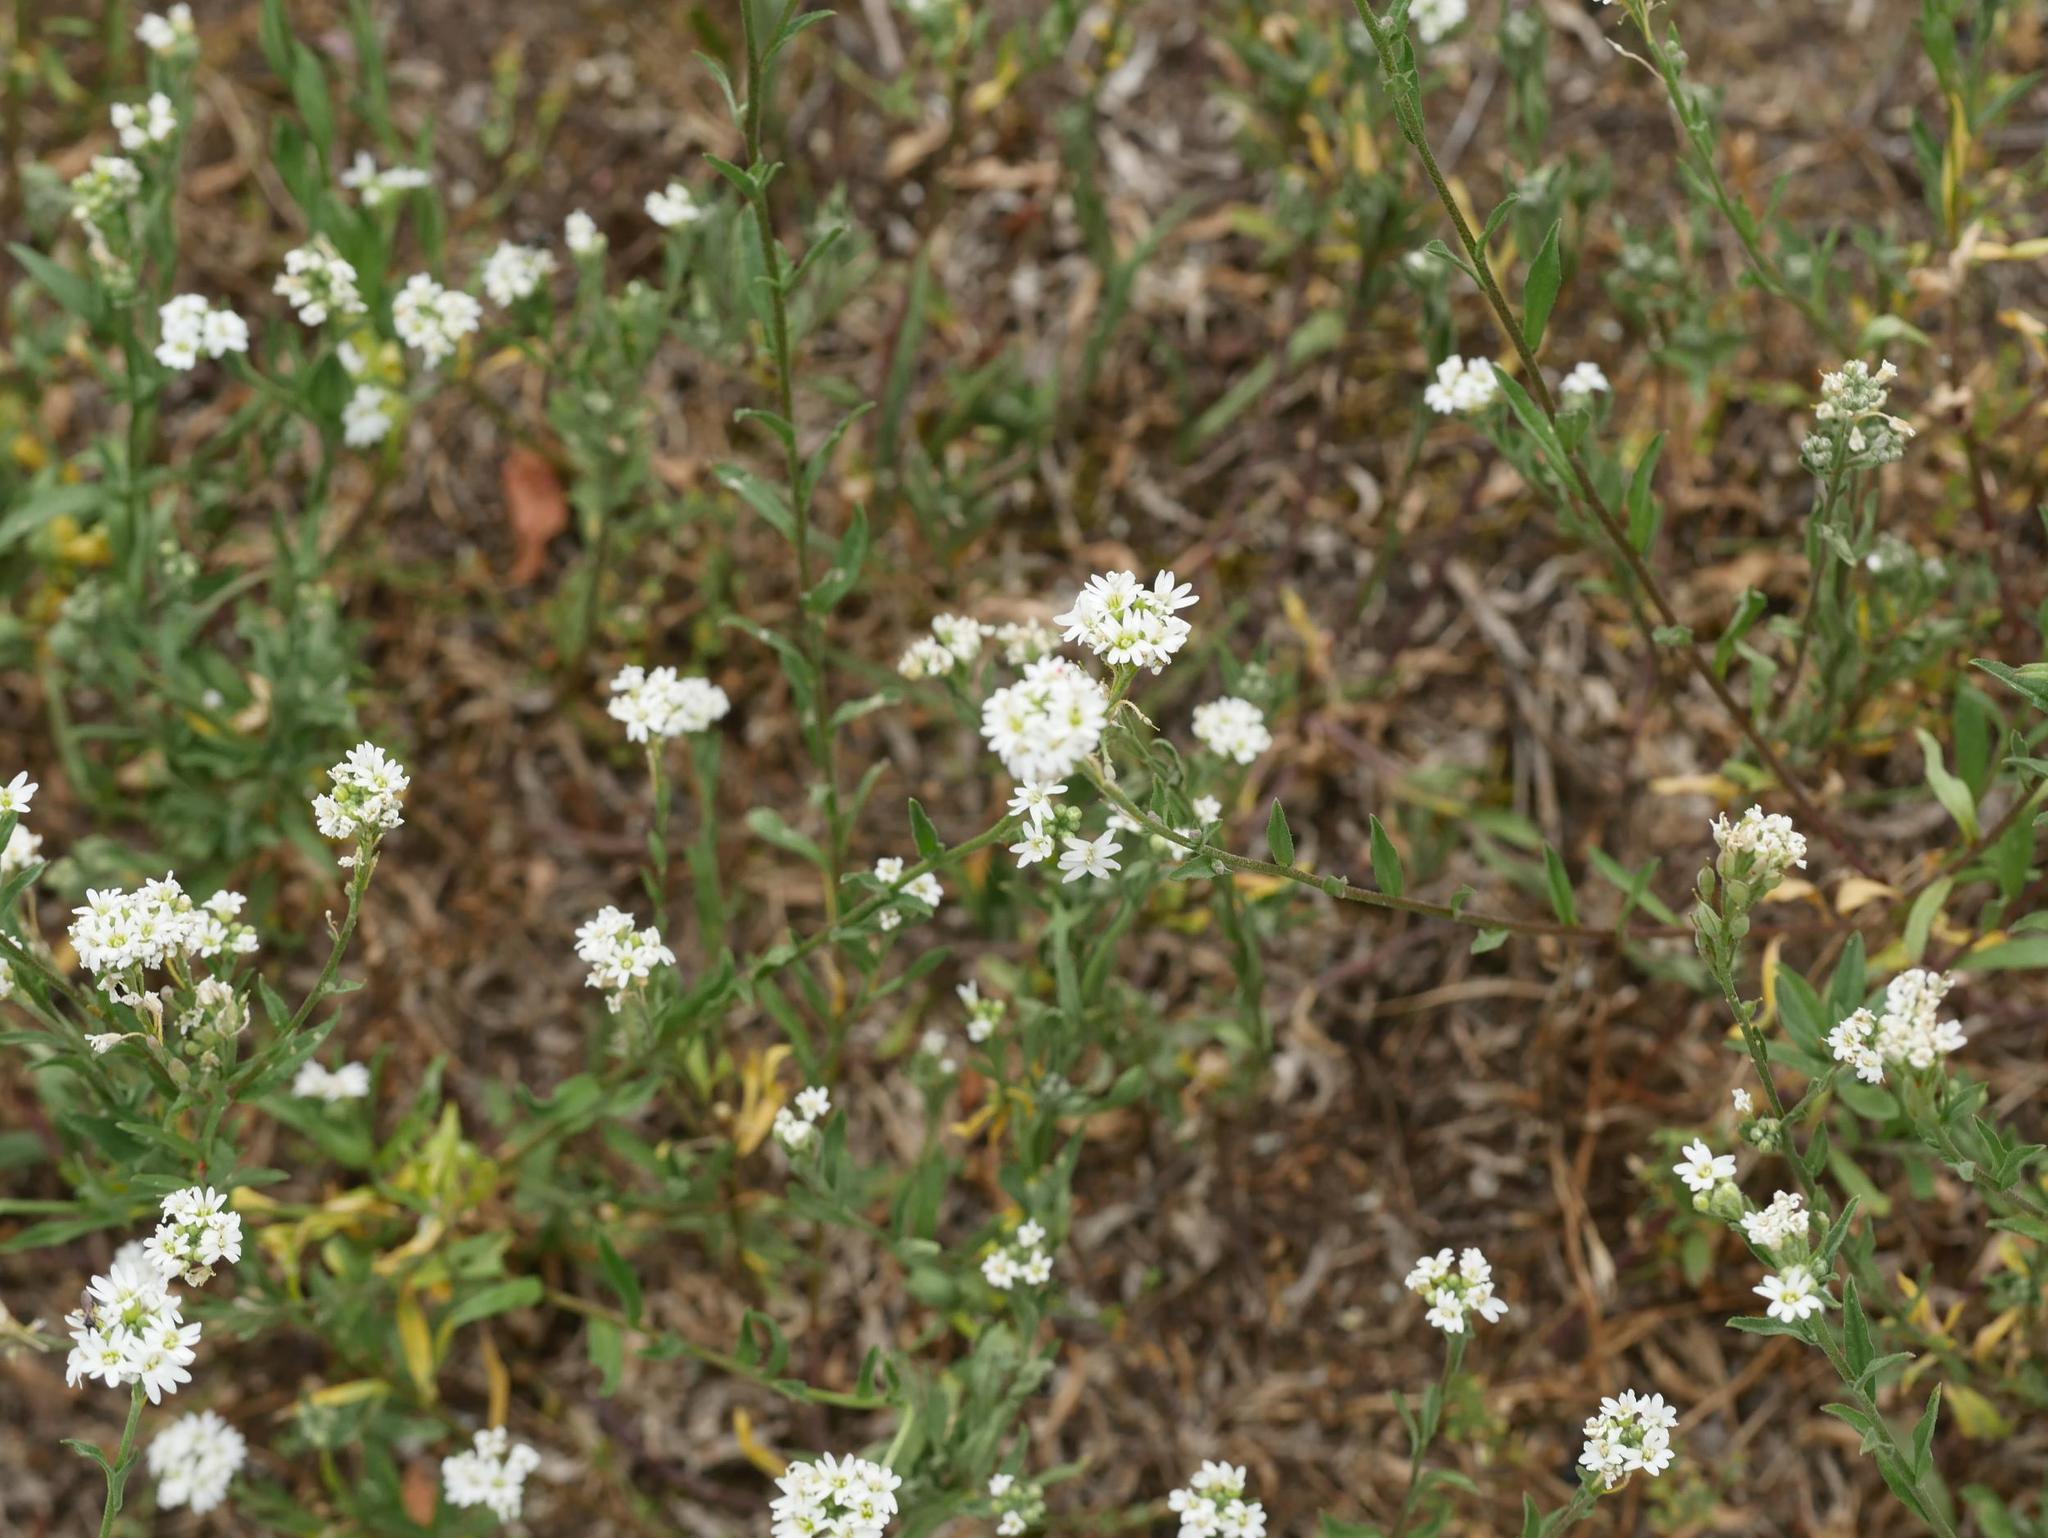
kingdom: Plantae
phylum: Tracheophyta
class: Magnoliopsida
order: Brassicales
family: Brassicaceae
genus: Berteroa
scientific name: Berteroa incana
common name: Hoary alison
